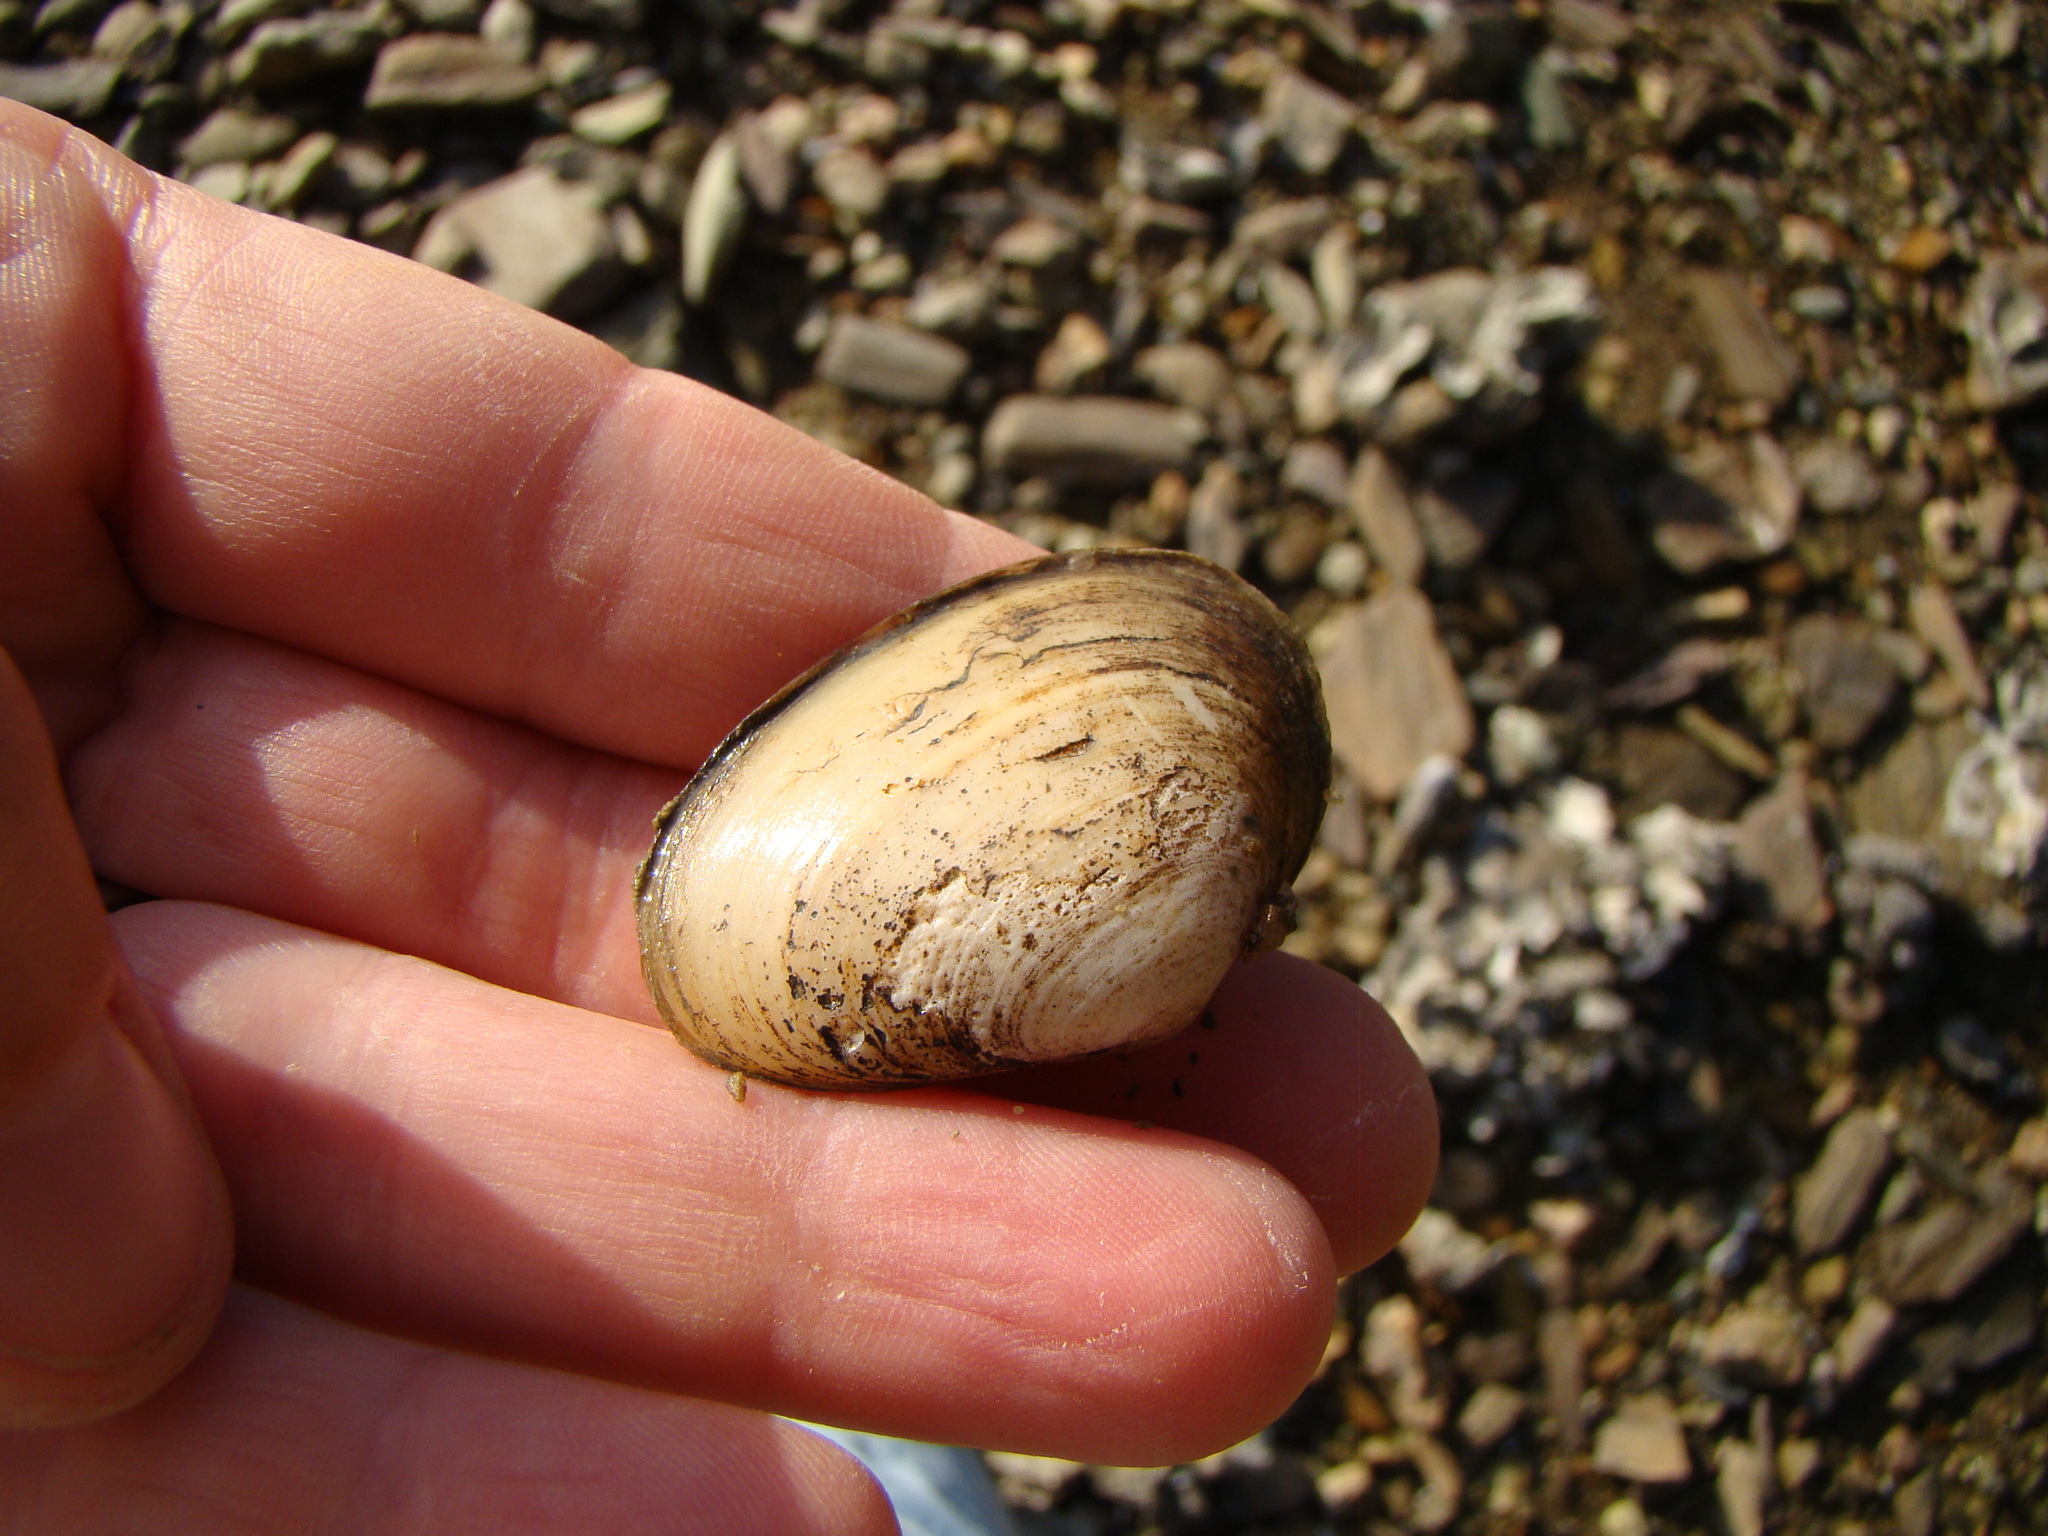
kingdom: Animalia
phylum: Mollusca
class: Bivalvia
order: Venerida
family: Mesodesmatidae
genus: Paphies
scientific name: Paphies australis
